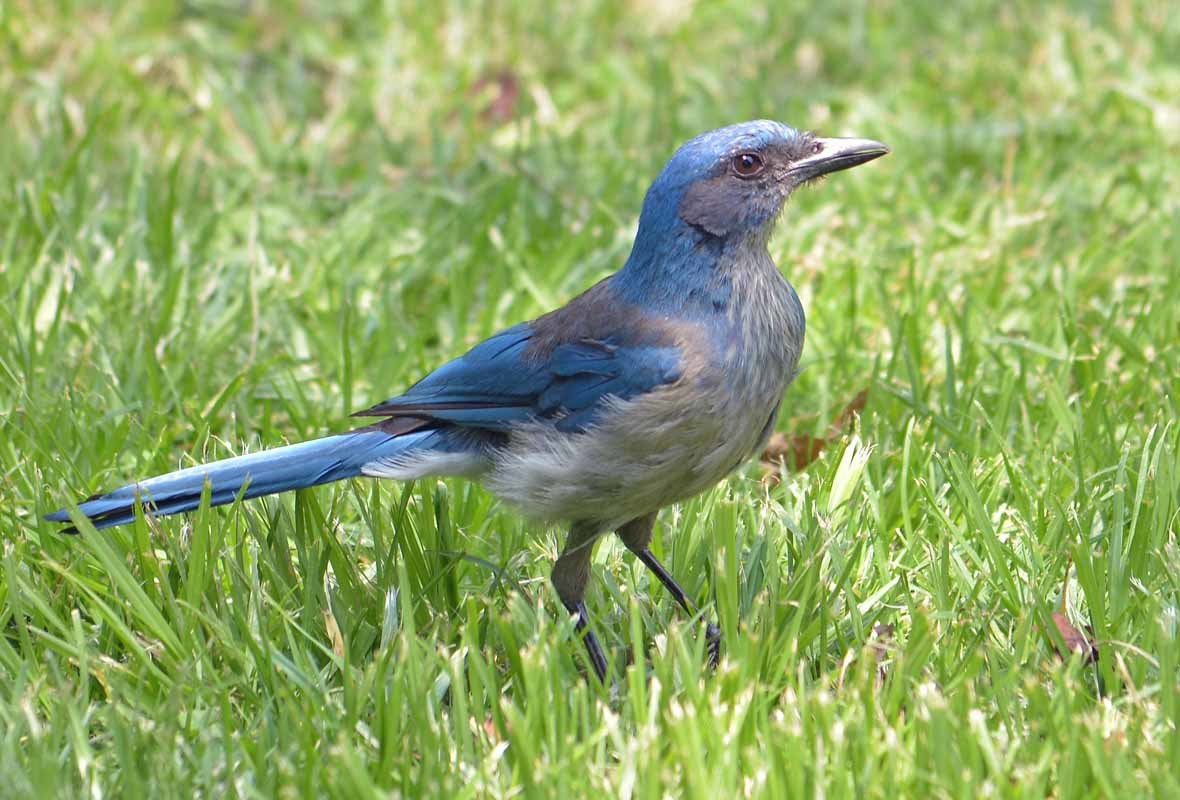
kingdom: Animalia
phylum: Chordata
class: Aves
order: Passeriformes
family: Corvidae
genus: Aphelocoma
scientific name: Aphelocoma woodhouseii
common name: Woodhouse's scrub-jay
